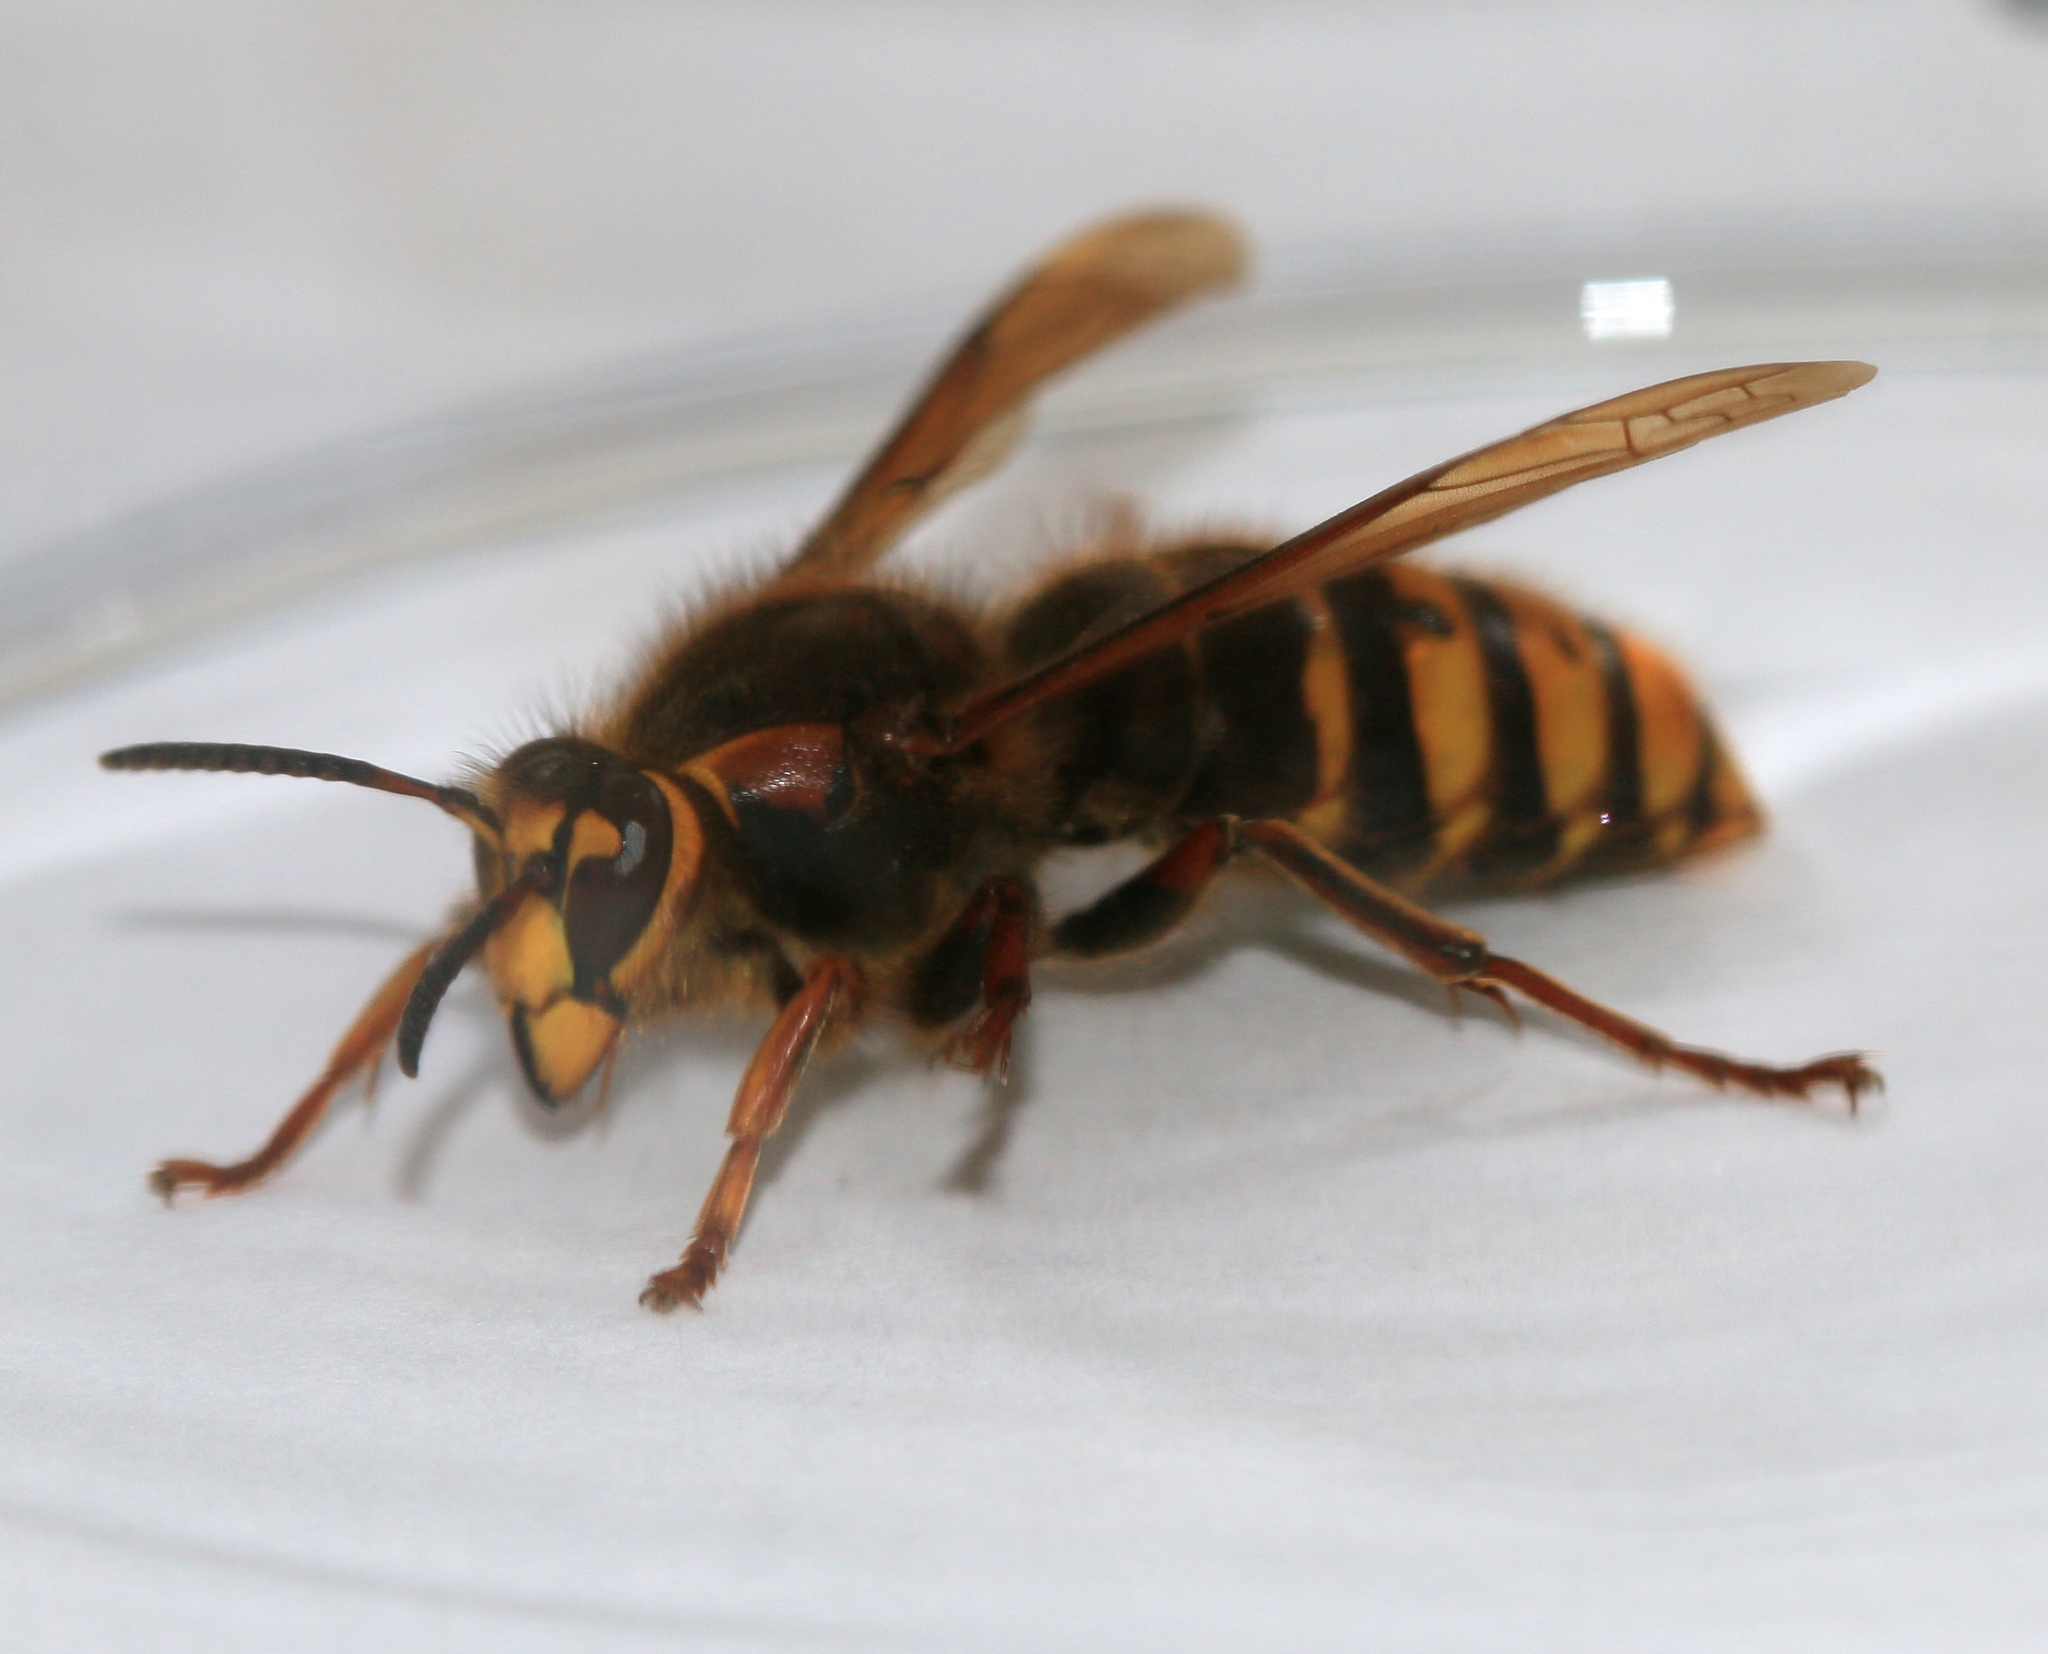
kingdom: Animalia
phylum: Arthropoda
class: Insecta
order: Hymenoptera
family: Vespidae
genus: Dolichovespula
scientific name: Dolichovespula media
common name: Median wasp
